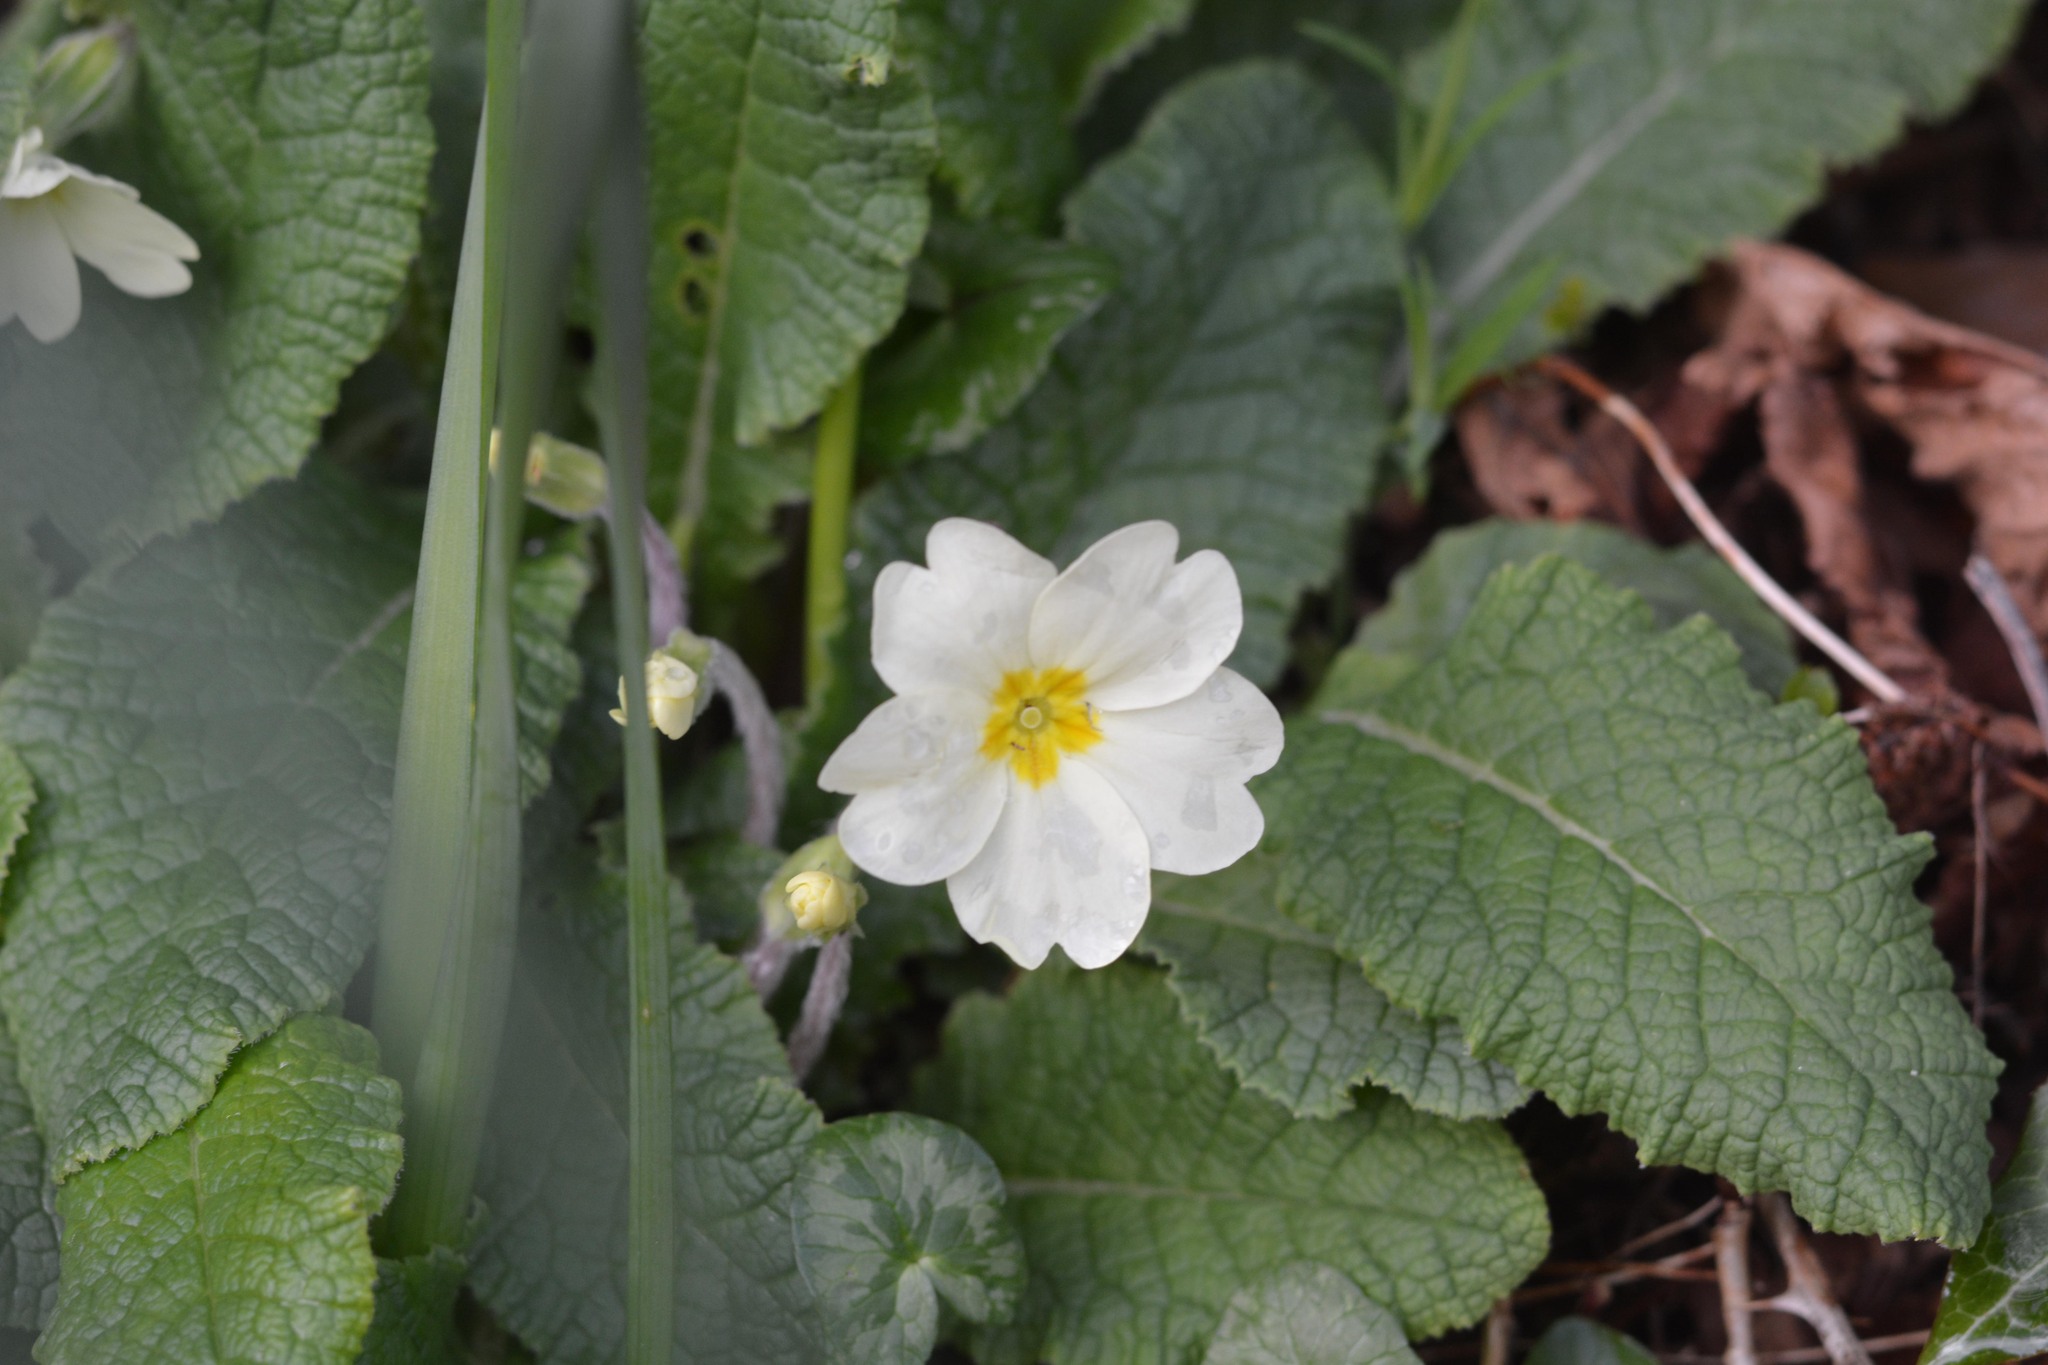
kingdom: Plantae
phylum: Tracheophyta
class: Magnoliopsida
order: Ericales
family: Primulaceae
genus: Primula
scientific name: Primula vulgaris
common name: Primrose
